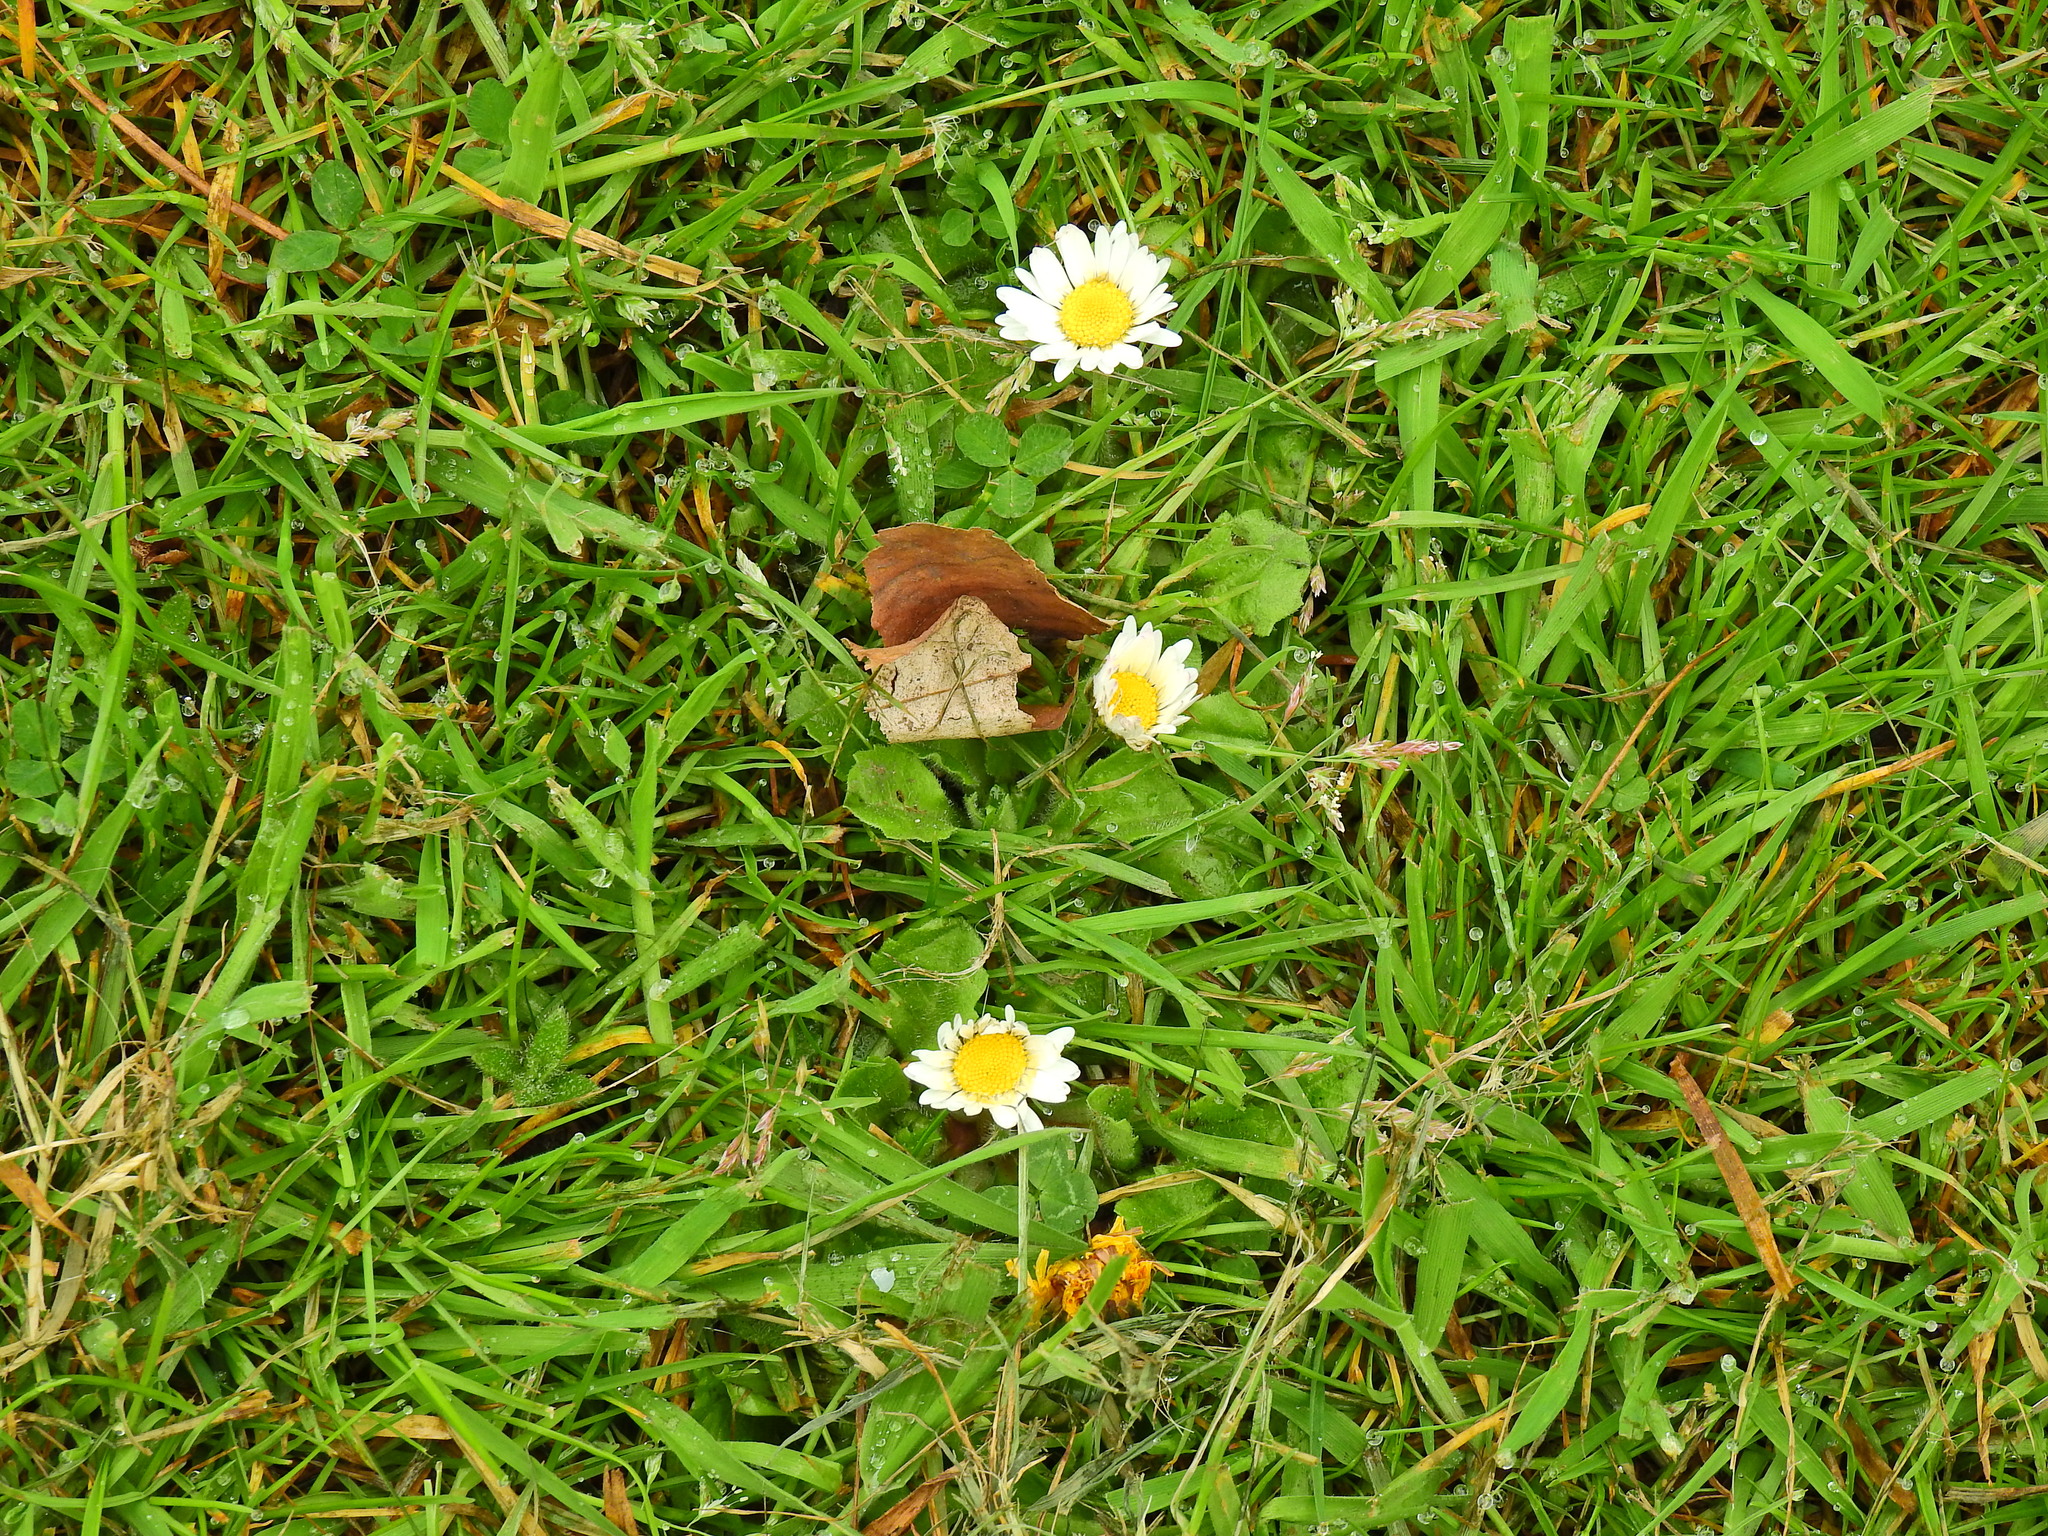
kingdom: Plantae
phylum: Tracheophyta
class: Magnoliopsida
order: Asterales
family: Asteraceae
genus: Bellis
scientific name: Bellis perennis
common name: Lawndaisy
